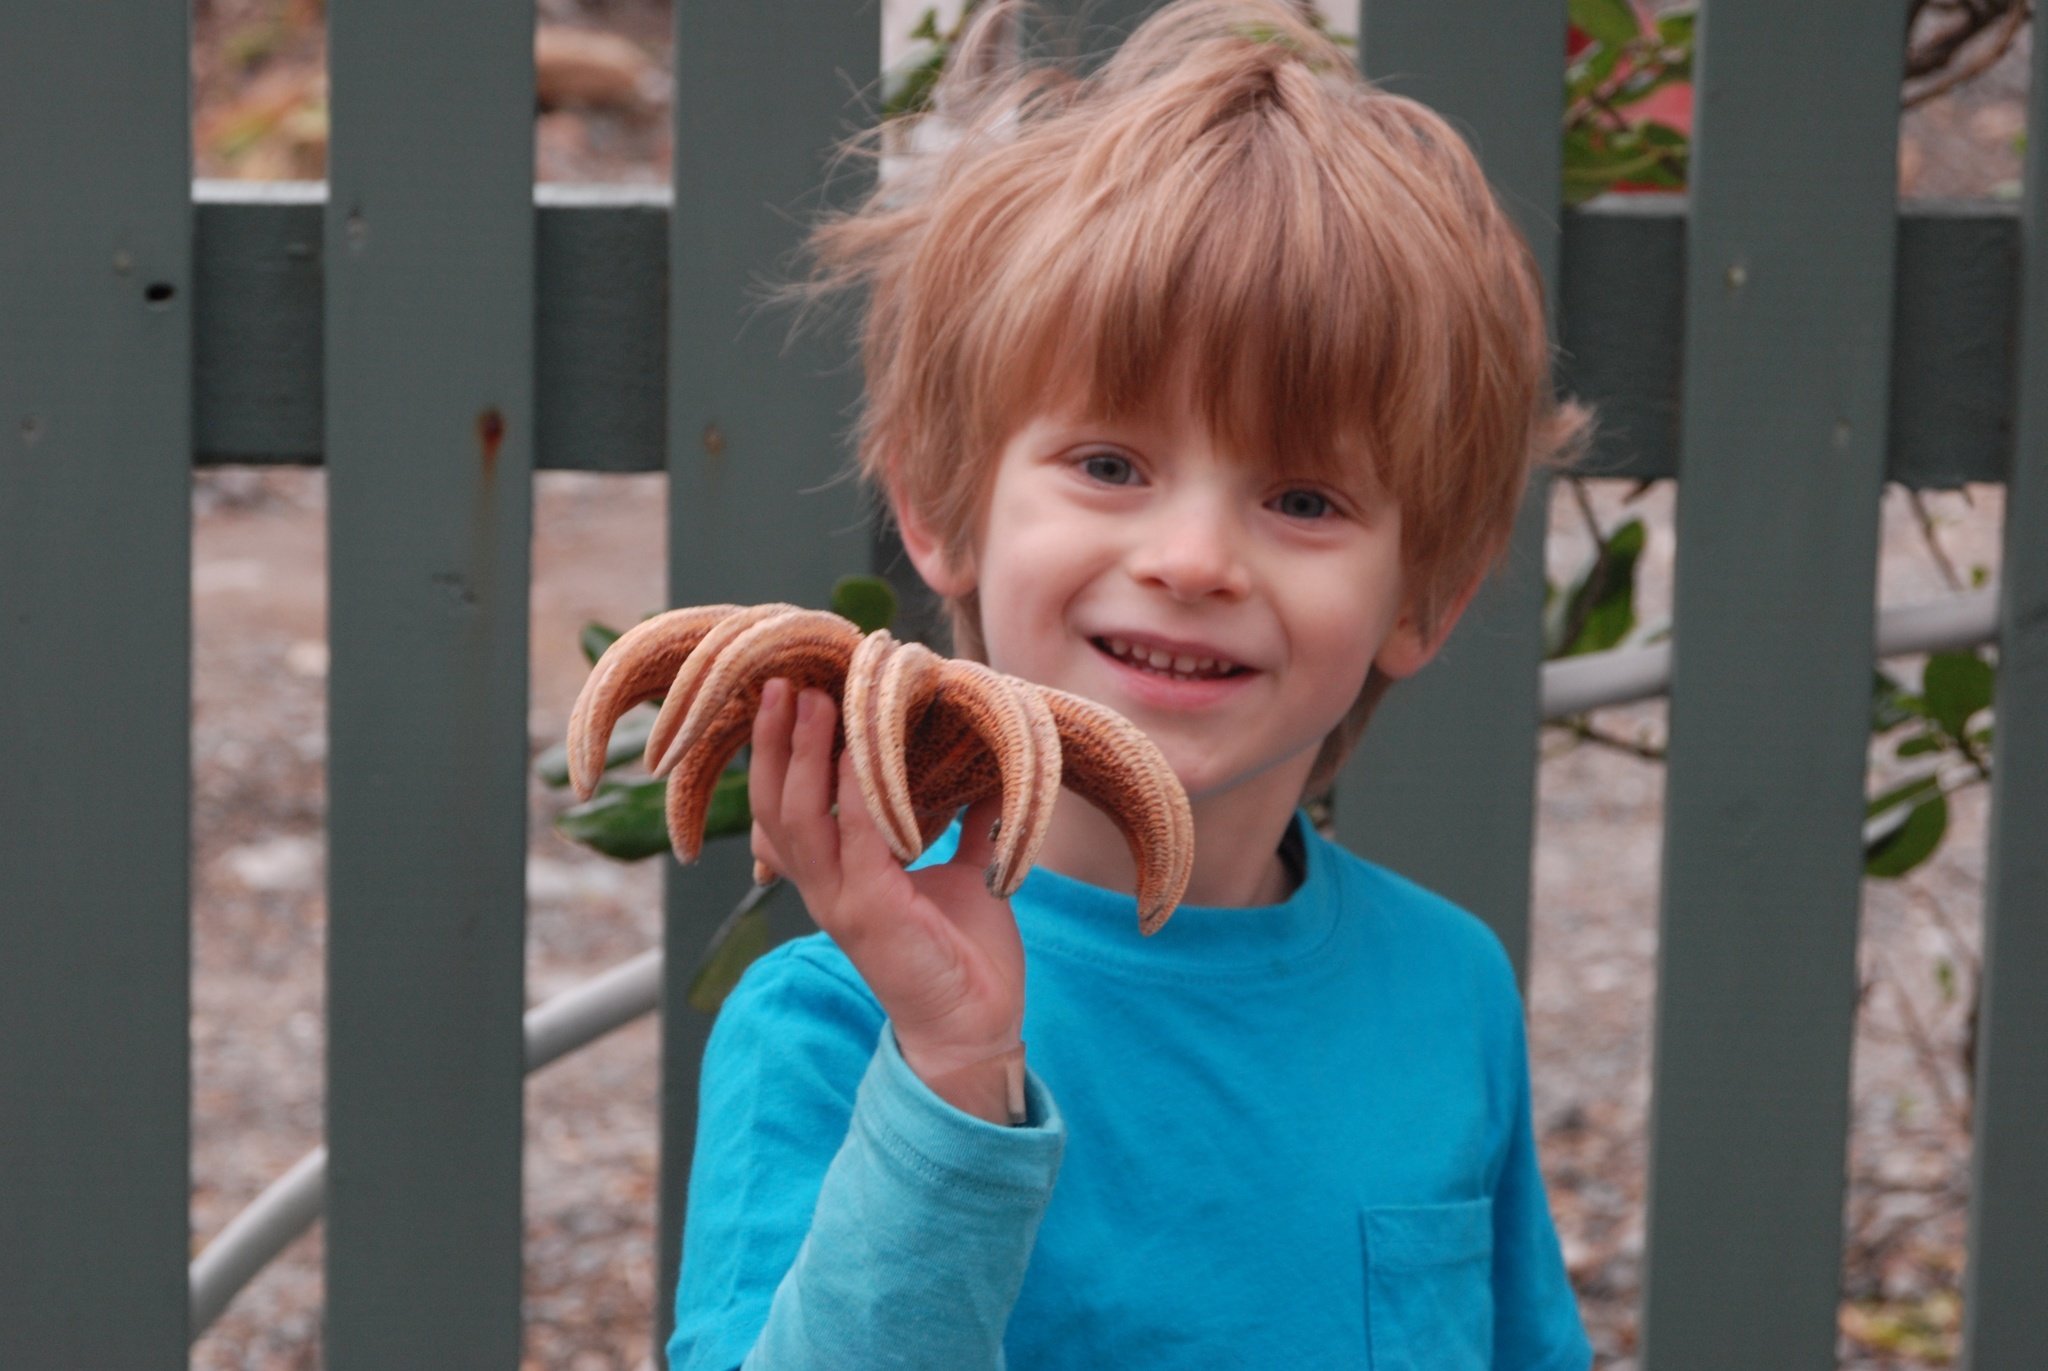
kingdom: Animalia
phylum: Echinodermata
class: Asteroidea
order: Forcipulatida
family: Stichasteridae
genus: Stichaster
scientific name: Stichaster australis
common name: Reef starfish
